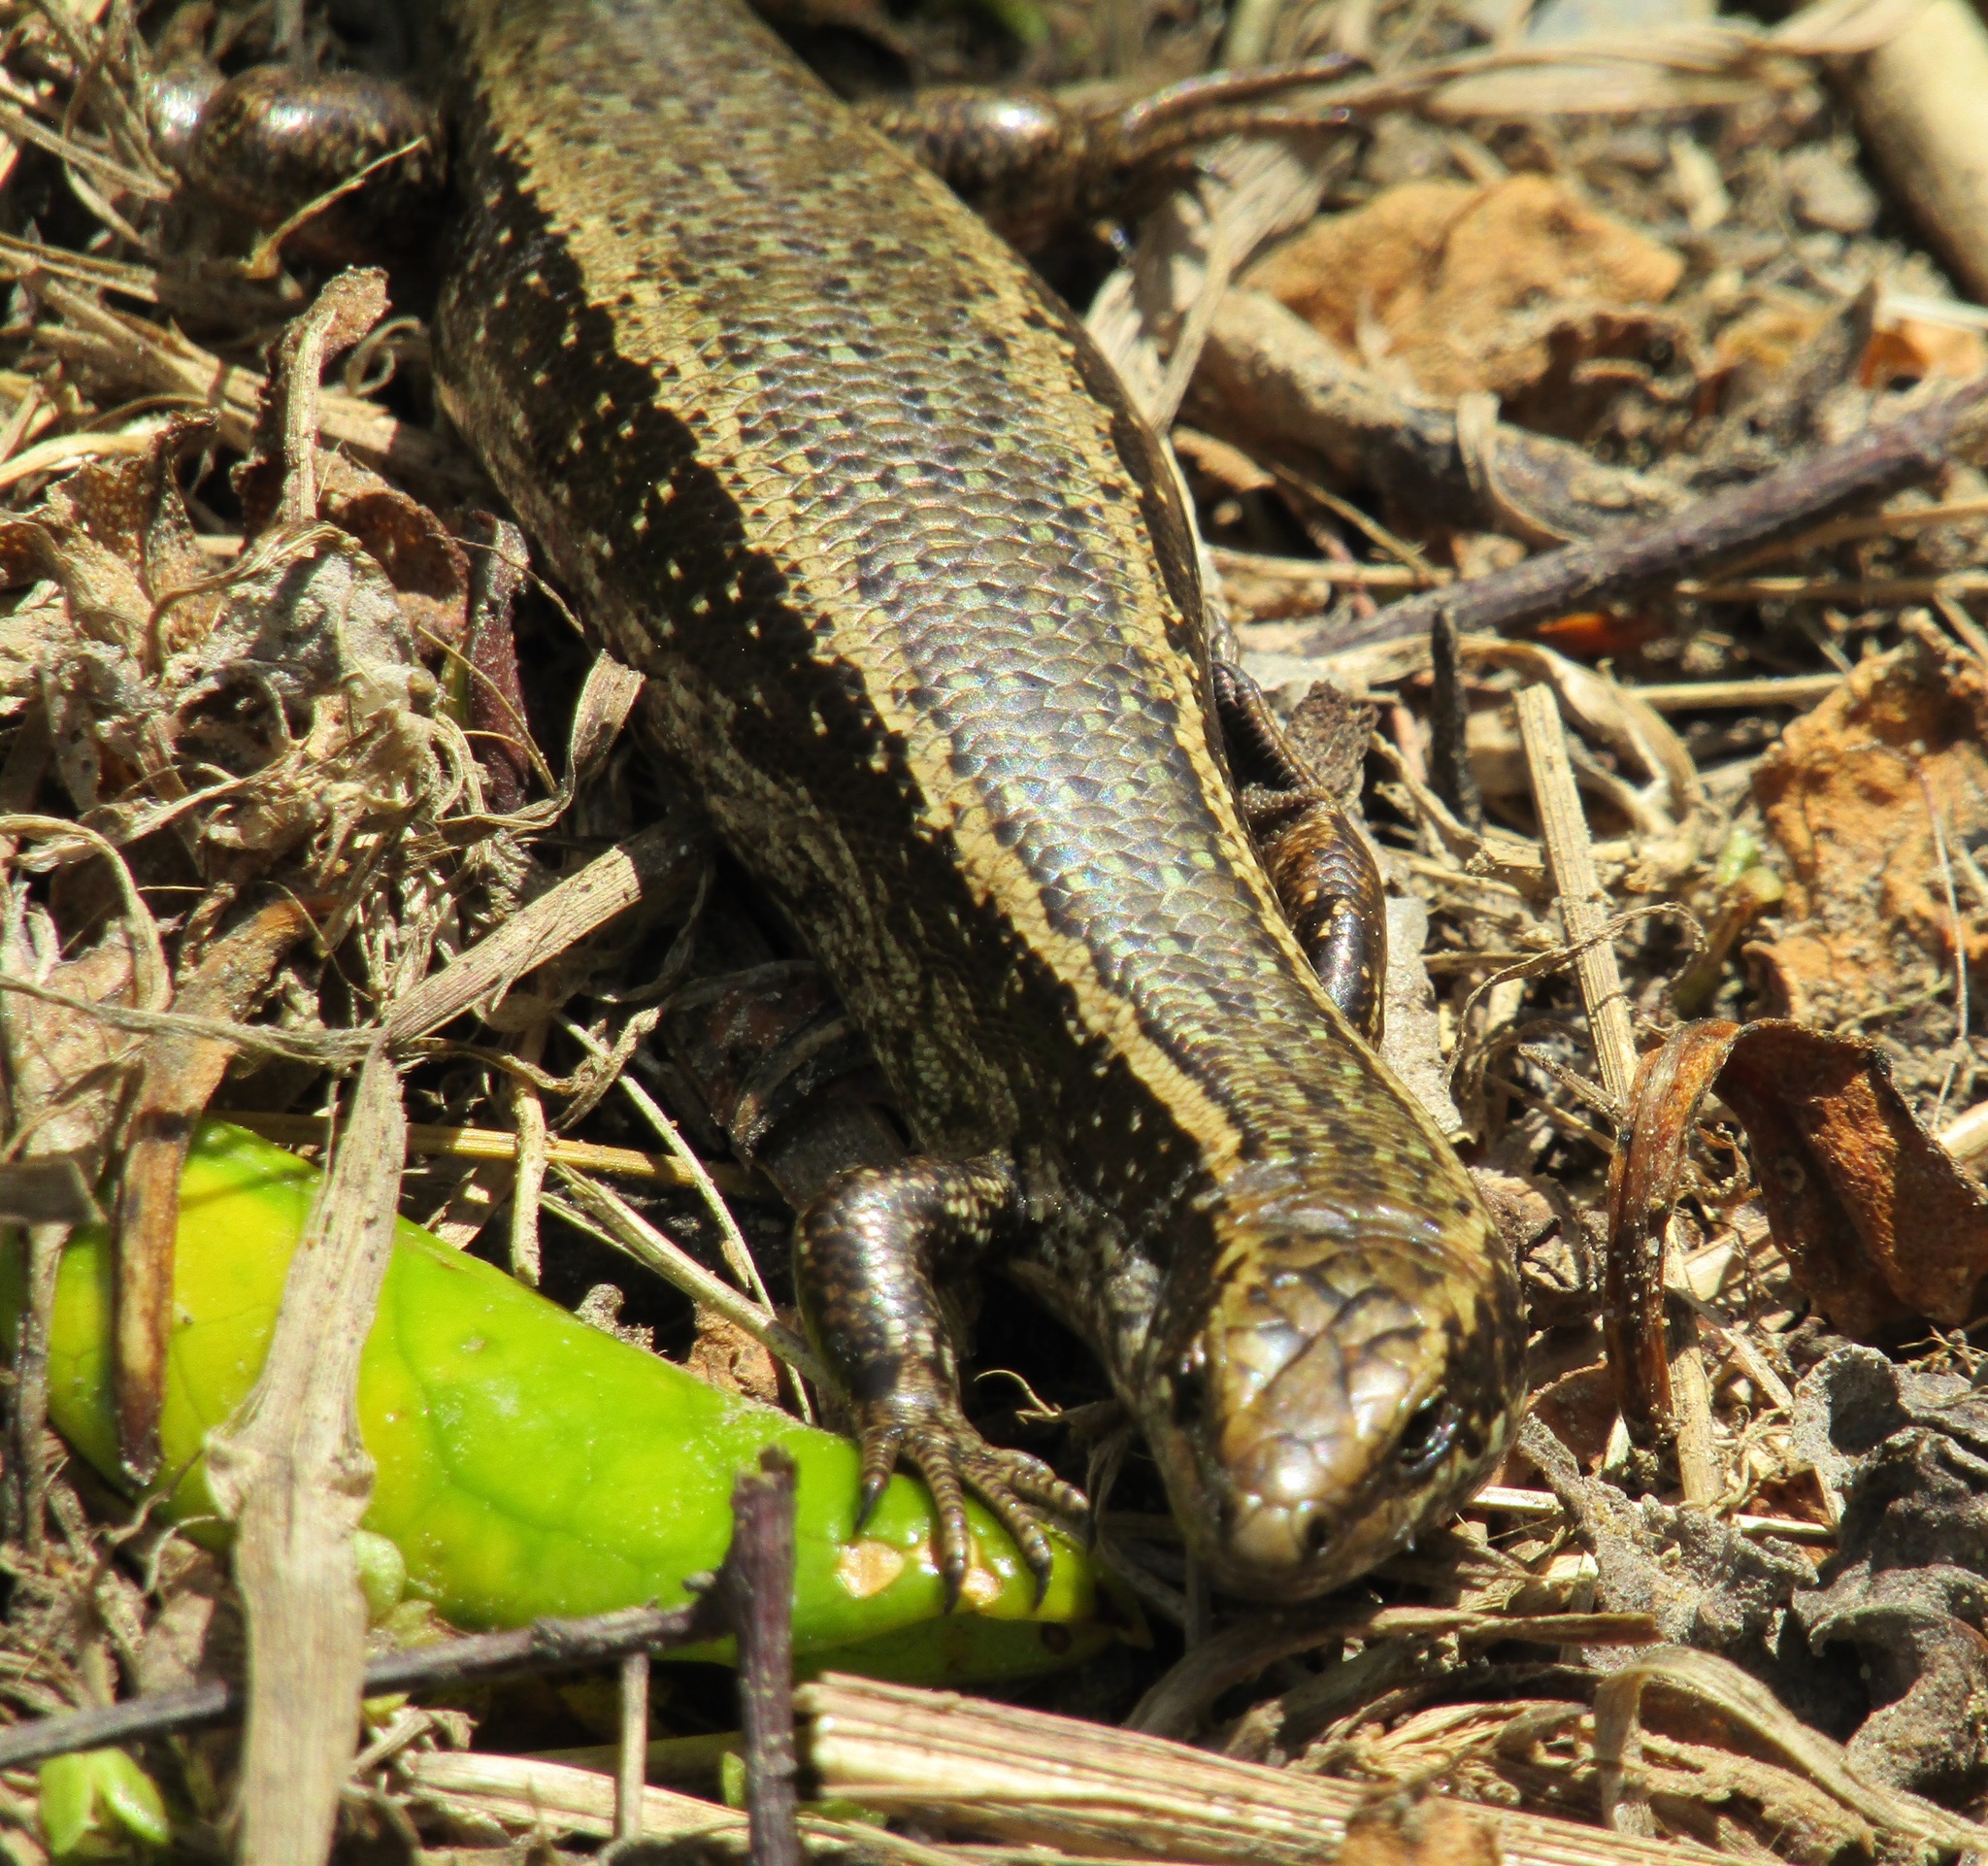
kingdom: Animalia
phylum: Chordata
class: Squamata
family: Scincidae
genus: Oligosoma
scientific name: Oligosoma kokowai
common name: Northern spotted skink
